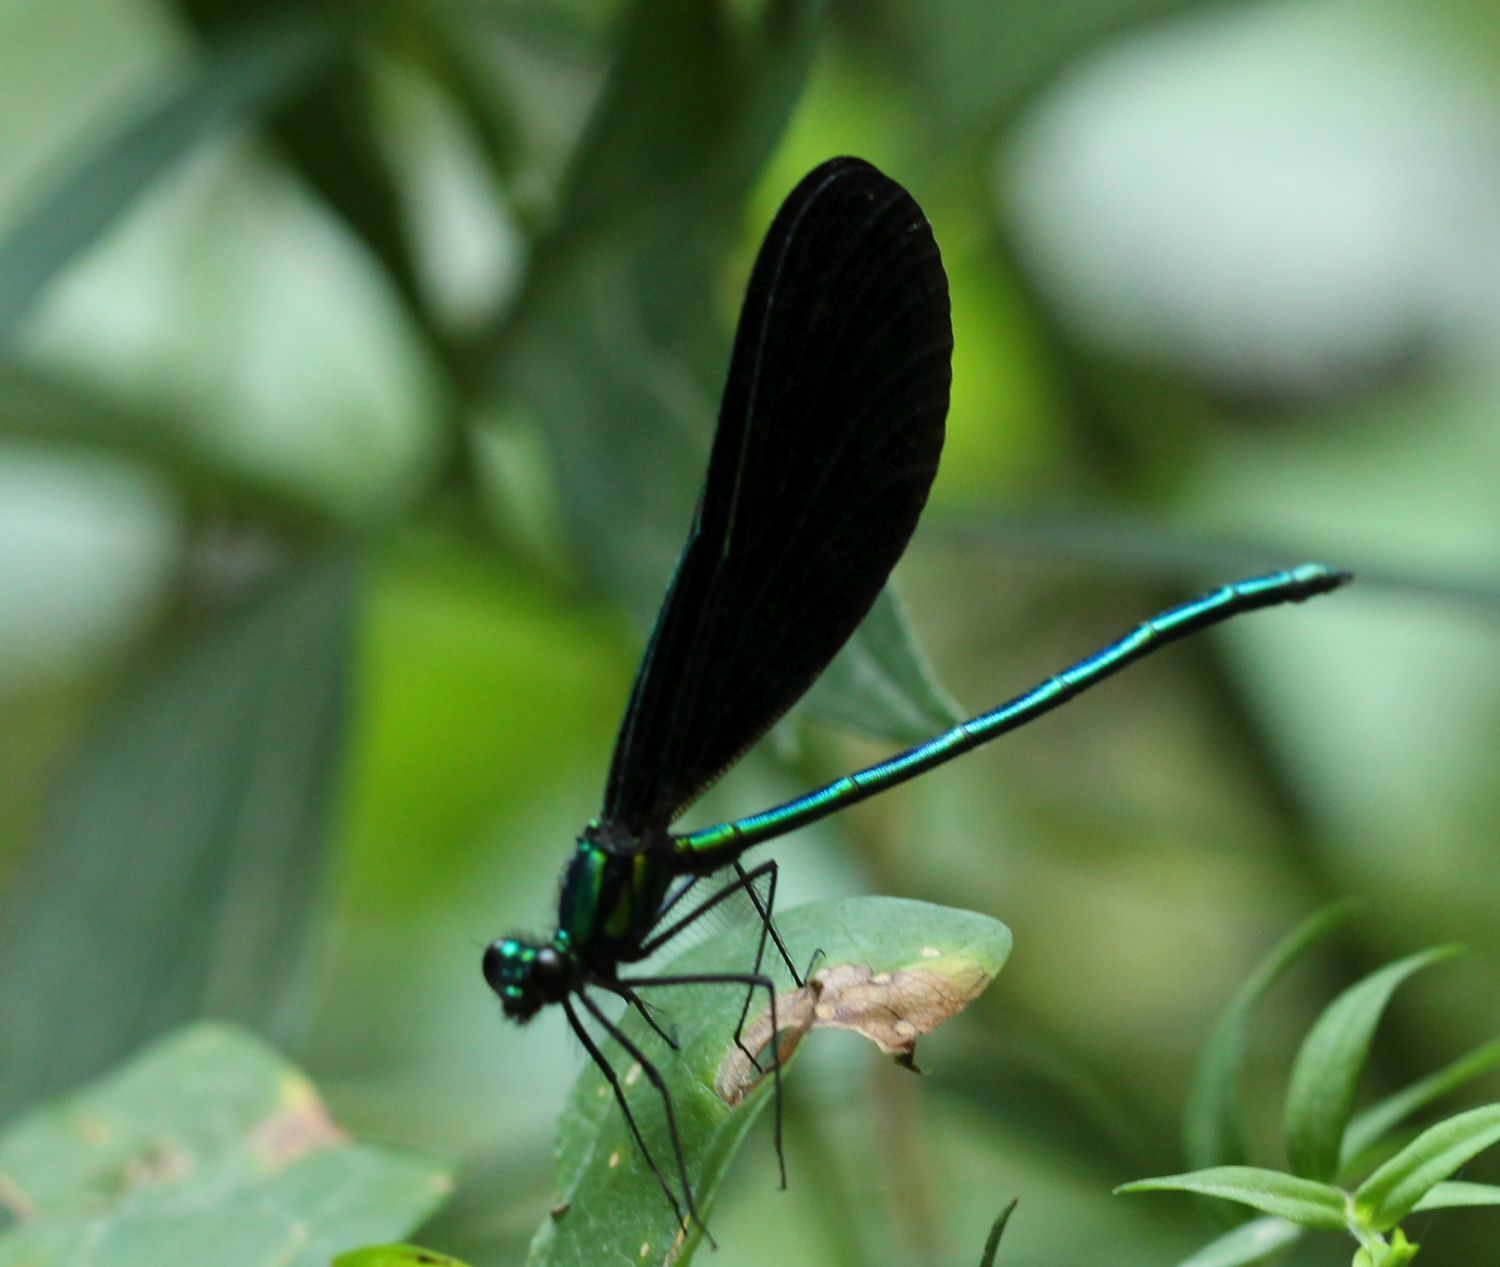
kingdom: Animalia
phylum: Arthropoda
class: Insecta
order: Odonata
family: Calopterygidae
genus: Calopteryx
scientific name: Calopteryx maculata
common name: Ebony jewelwing
